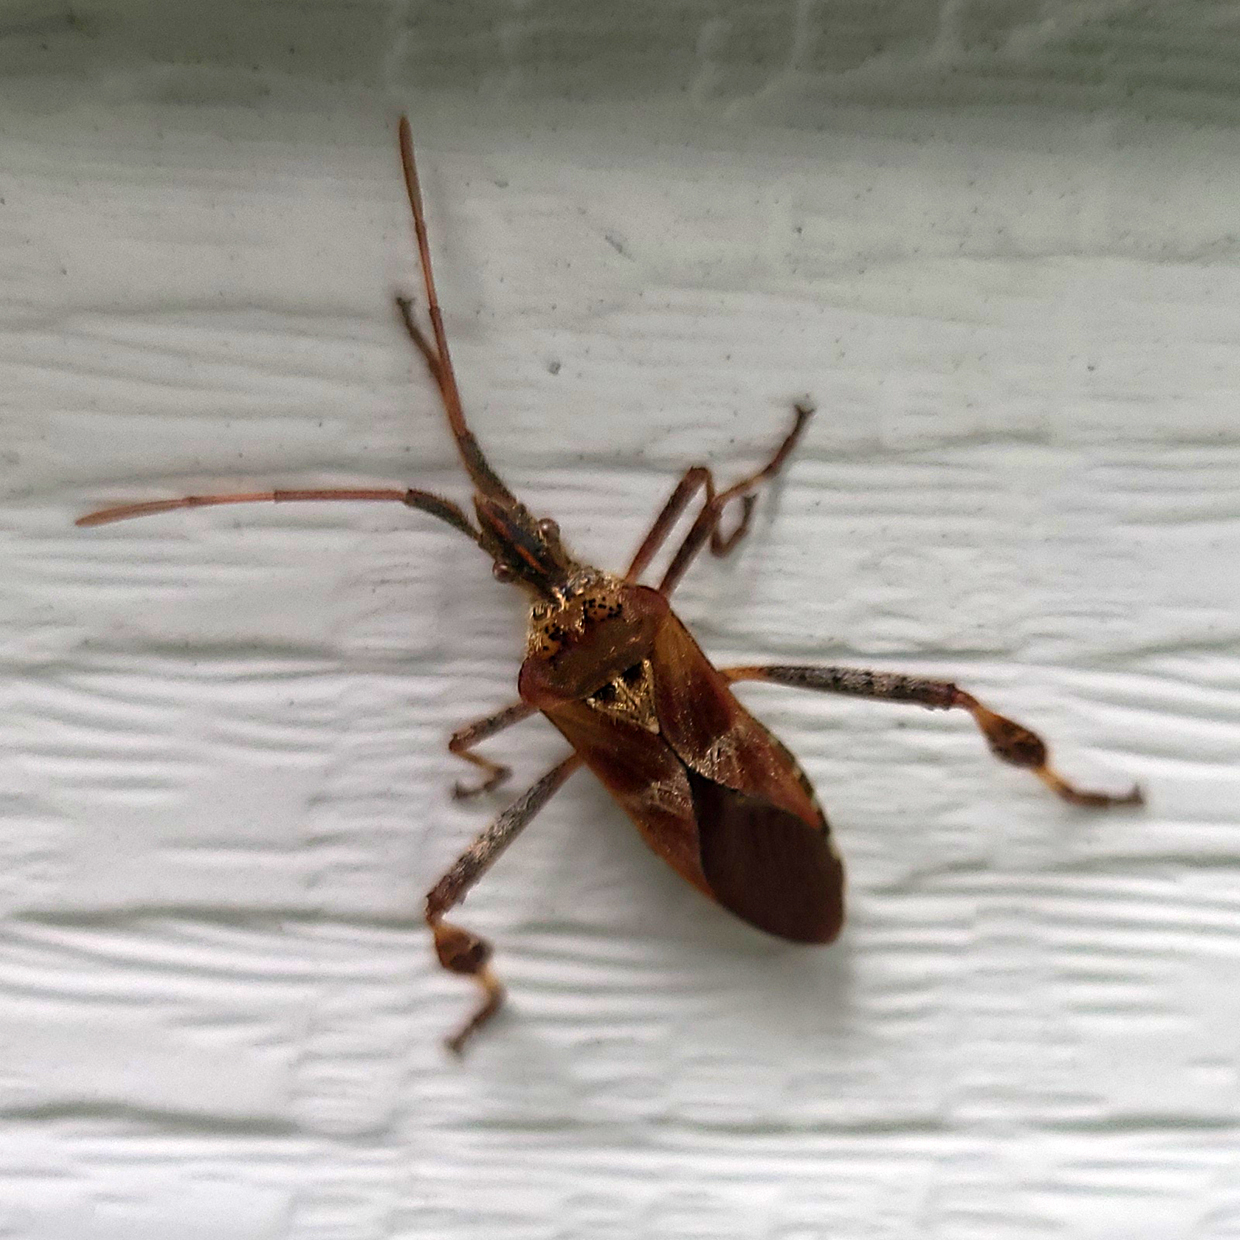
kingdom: Animalia
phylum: Arthropoda
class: Insecta
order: Hemiptera
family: Coreidae
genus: Leptoglossus
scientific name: Leptoglossus occidentalis
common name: Western conifer-seed bug
